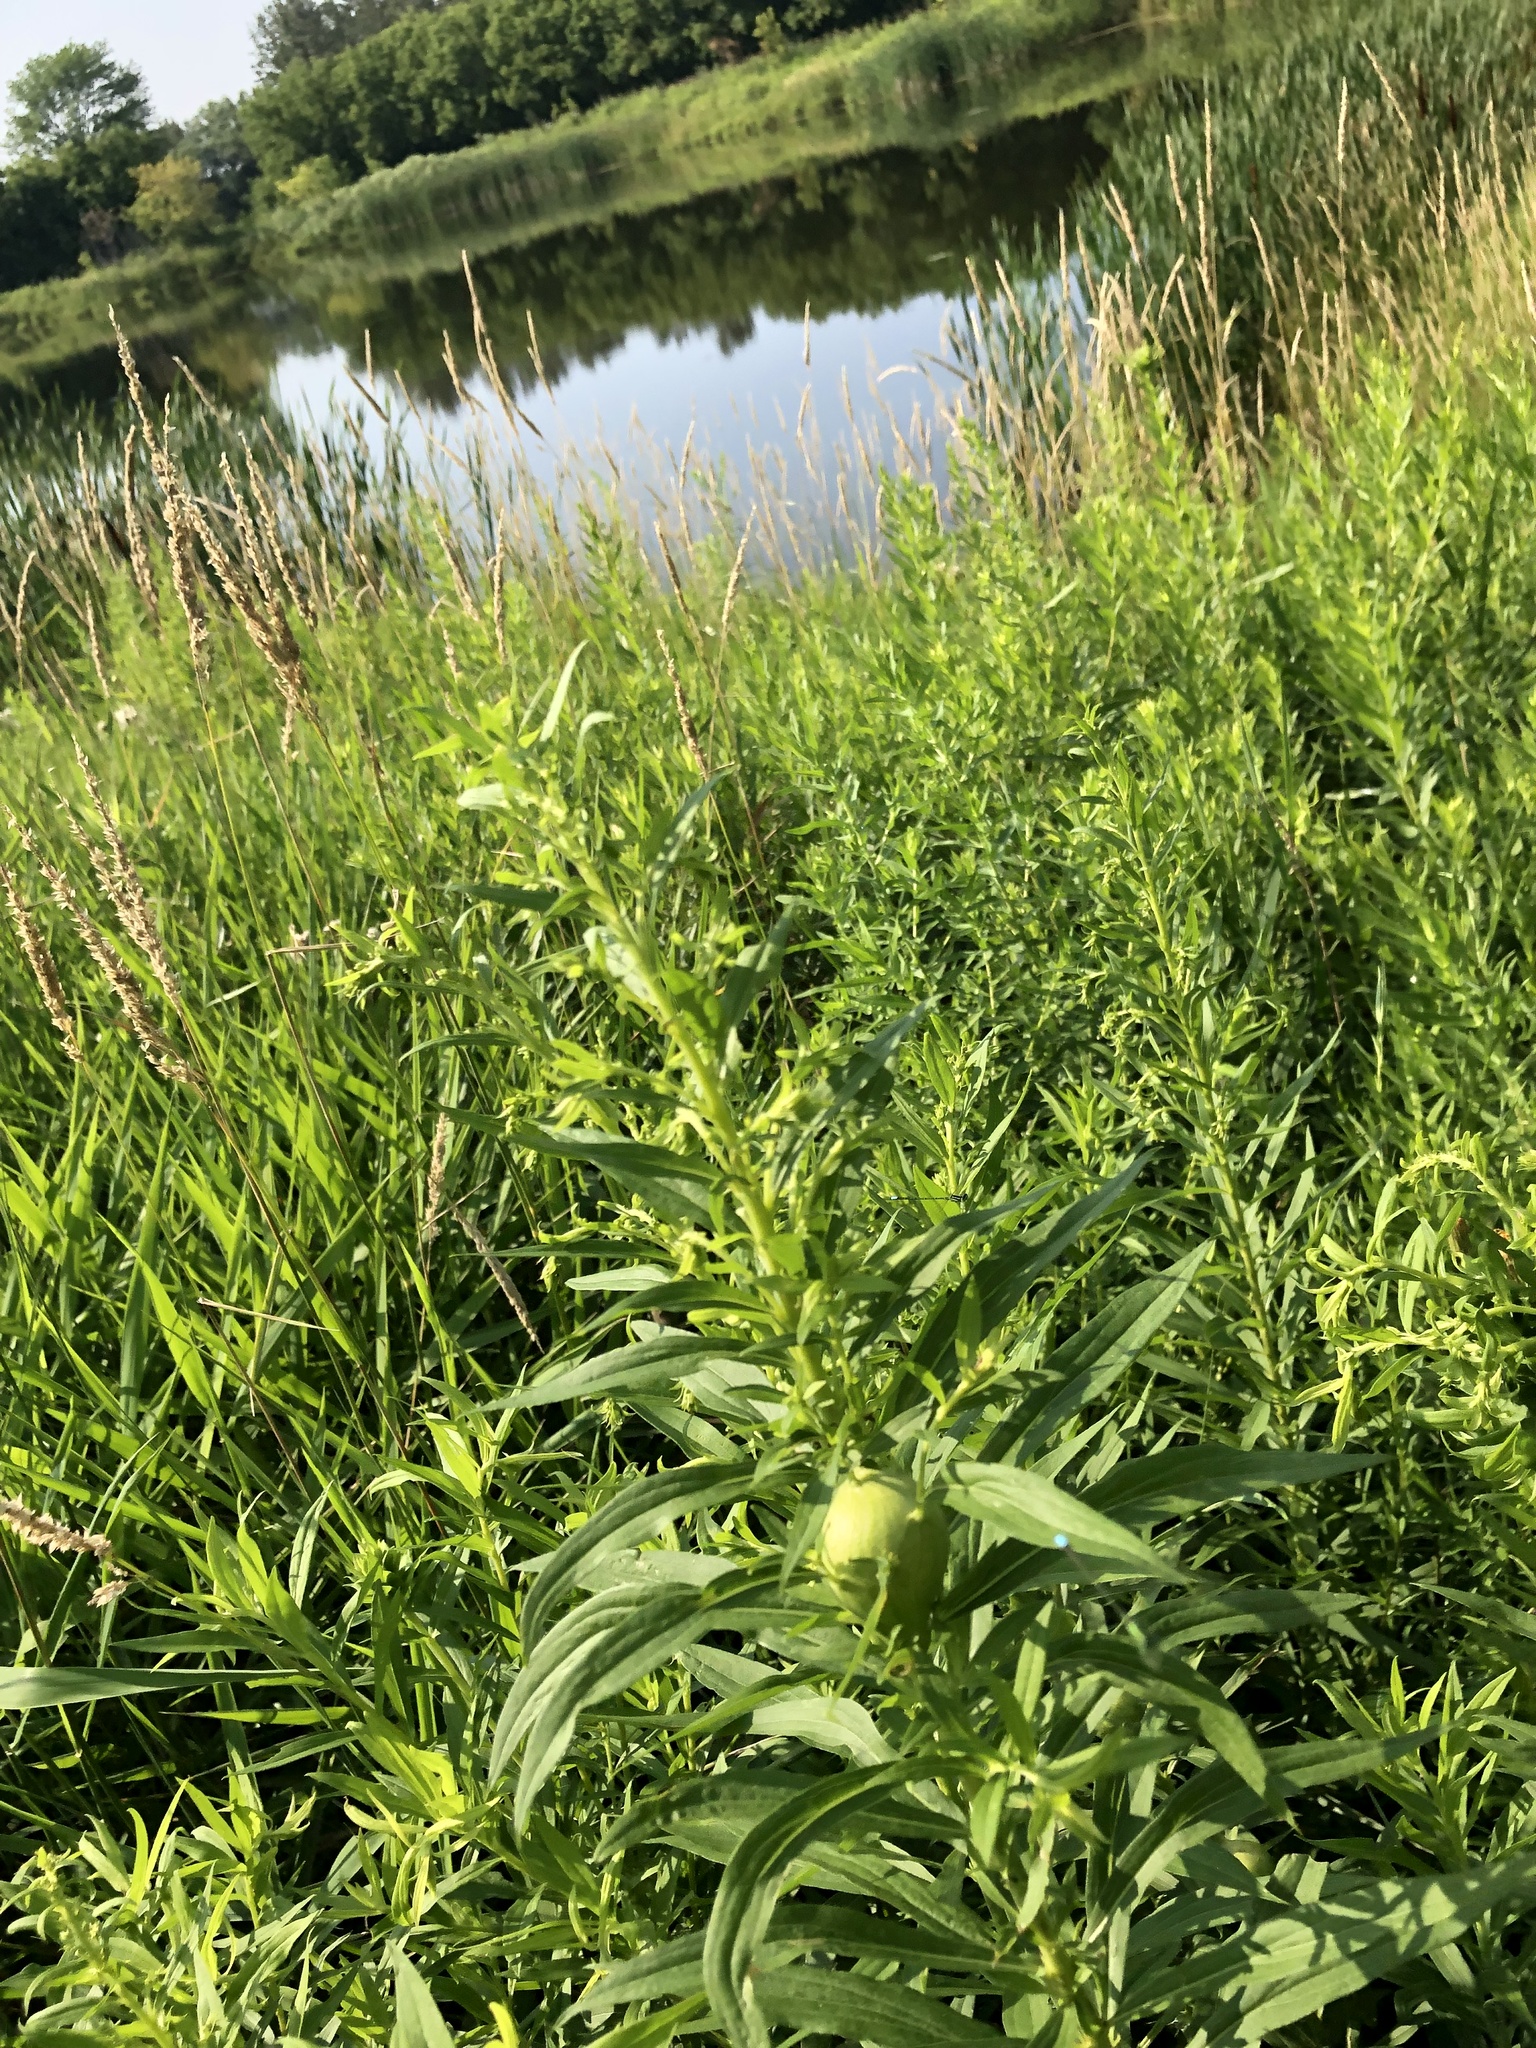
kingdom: Animalia
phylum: Arthropoda
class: Insecta
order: Diptera
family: Tephritidae
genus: Eurosta
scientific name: Eurosta solidaginis
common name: Goldenrod gall fly
